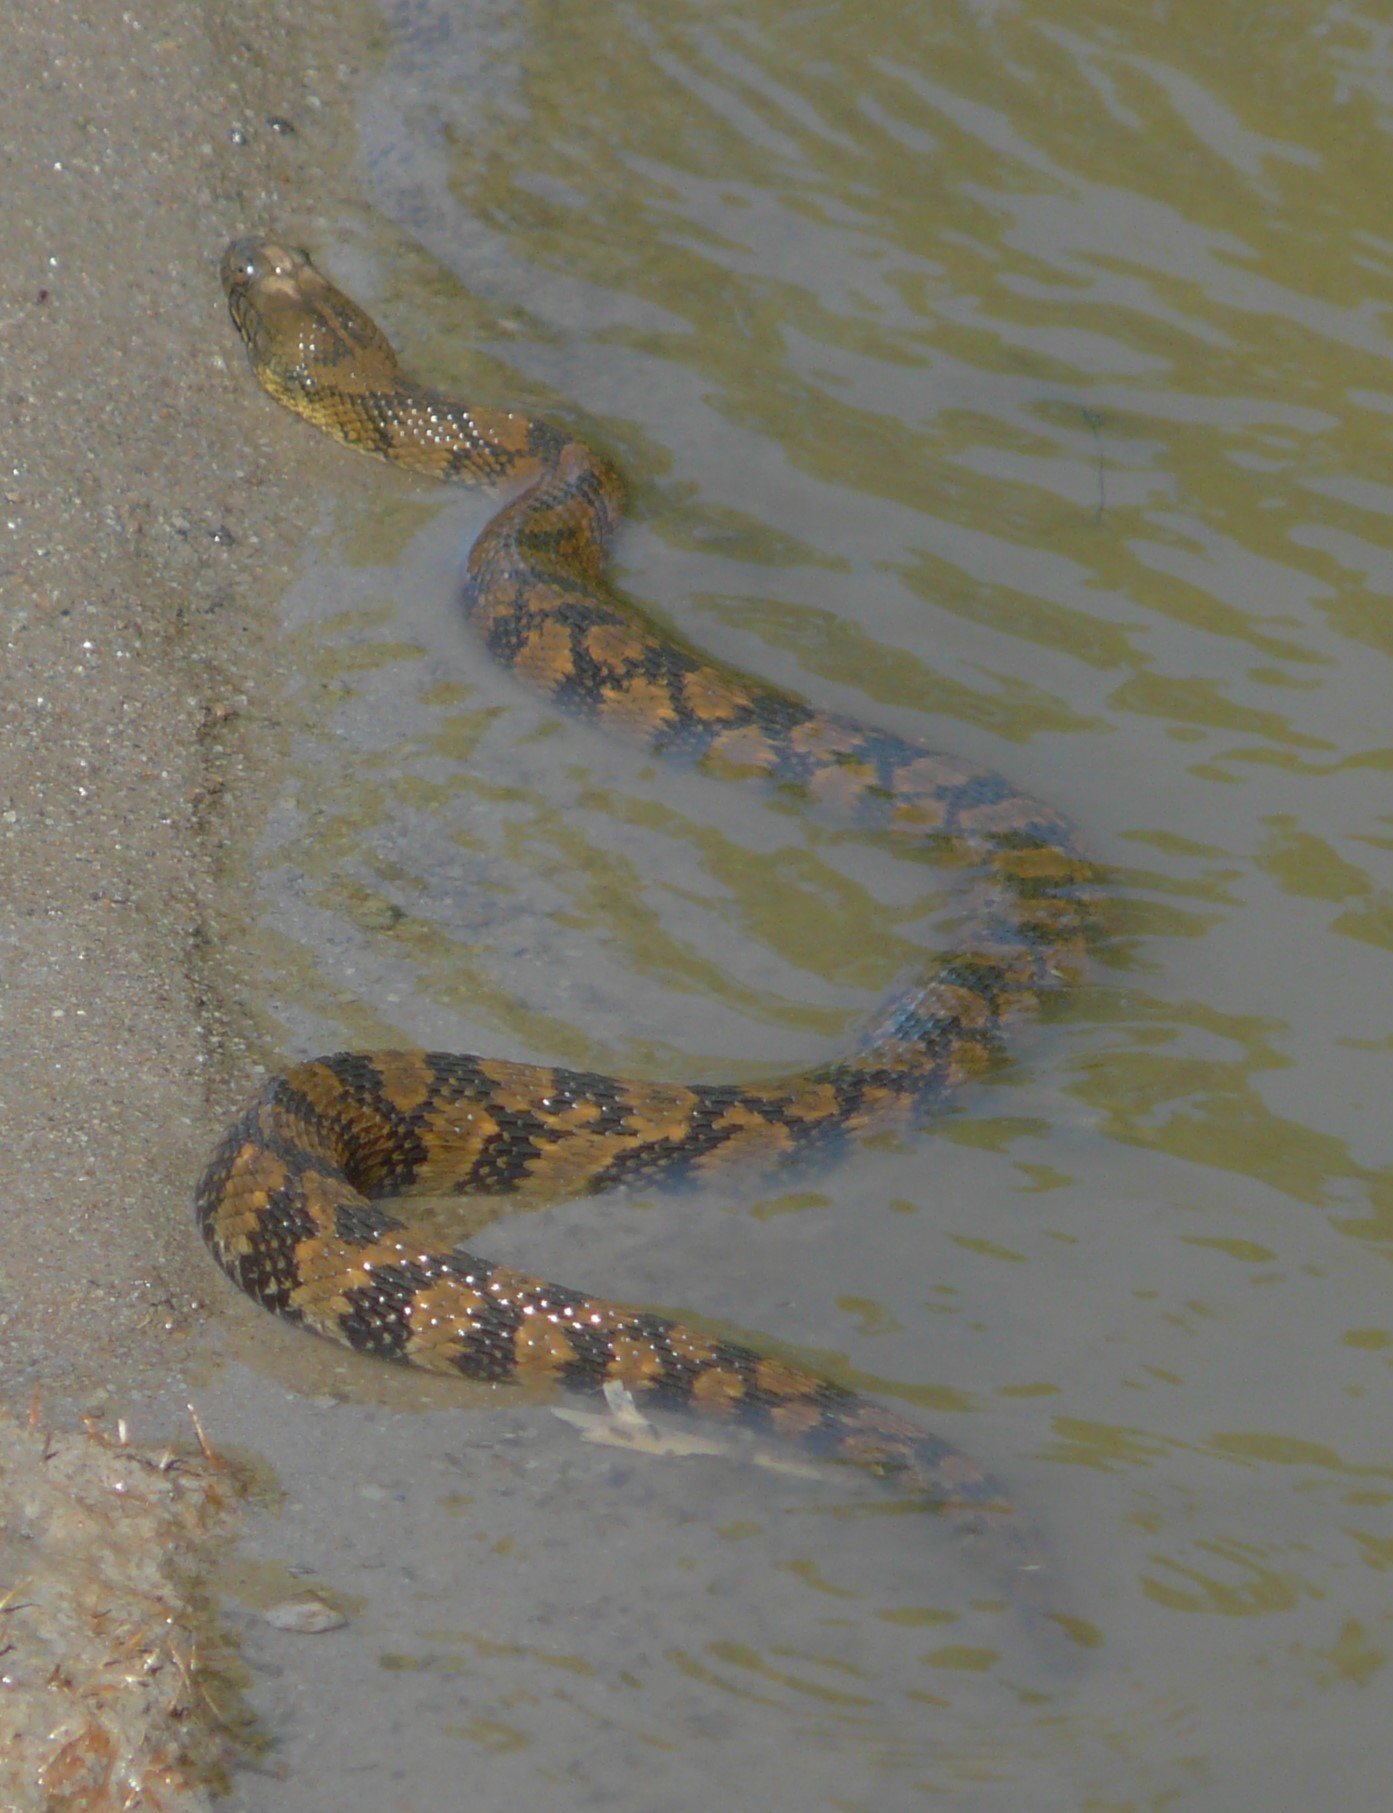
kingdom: Animalia
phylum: Chordata
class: Squamata
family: Colubridae
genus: Nerodia
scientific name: Nerodia rhombifer
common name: Diamondback water snake
